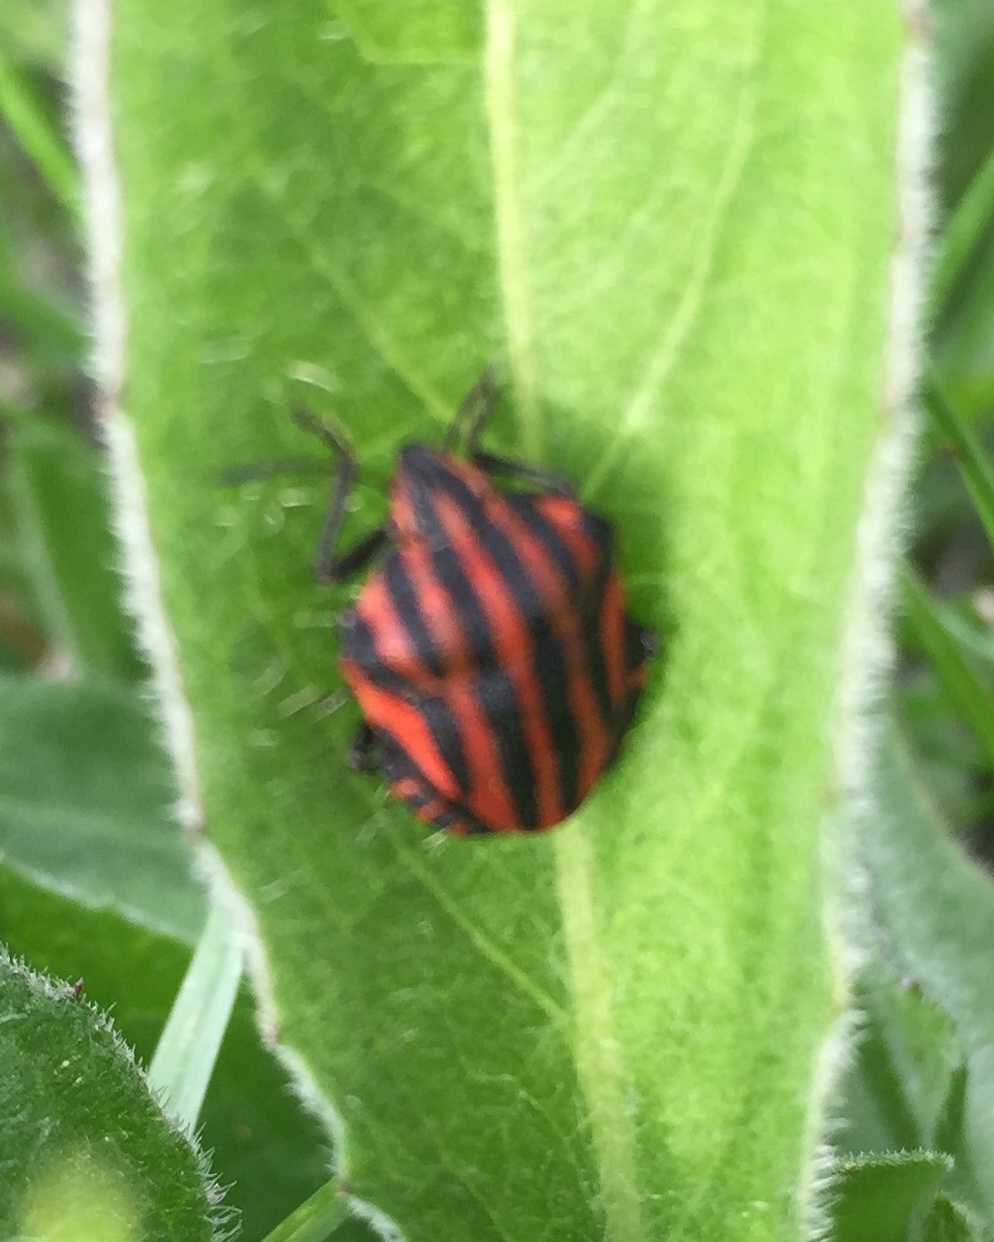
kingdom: Animalia
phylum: Arthropoda
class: Insecta
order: Hemiptera
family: Pentatomidae
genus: Graphosoma
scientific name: Graphosoma italicum
